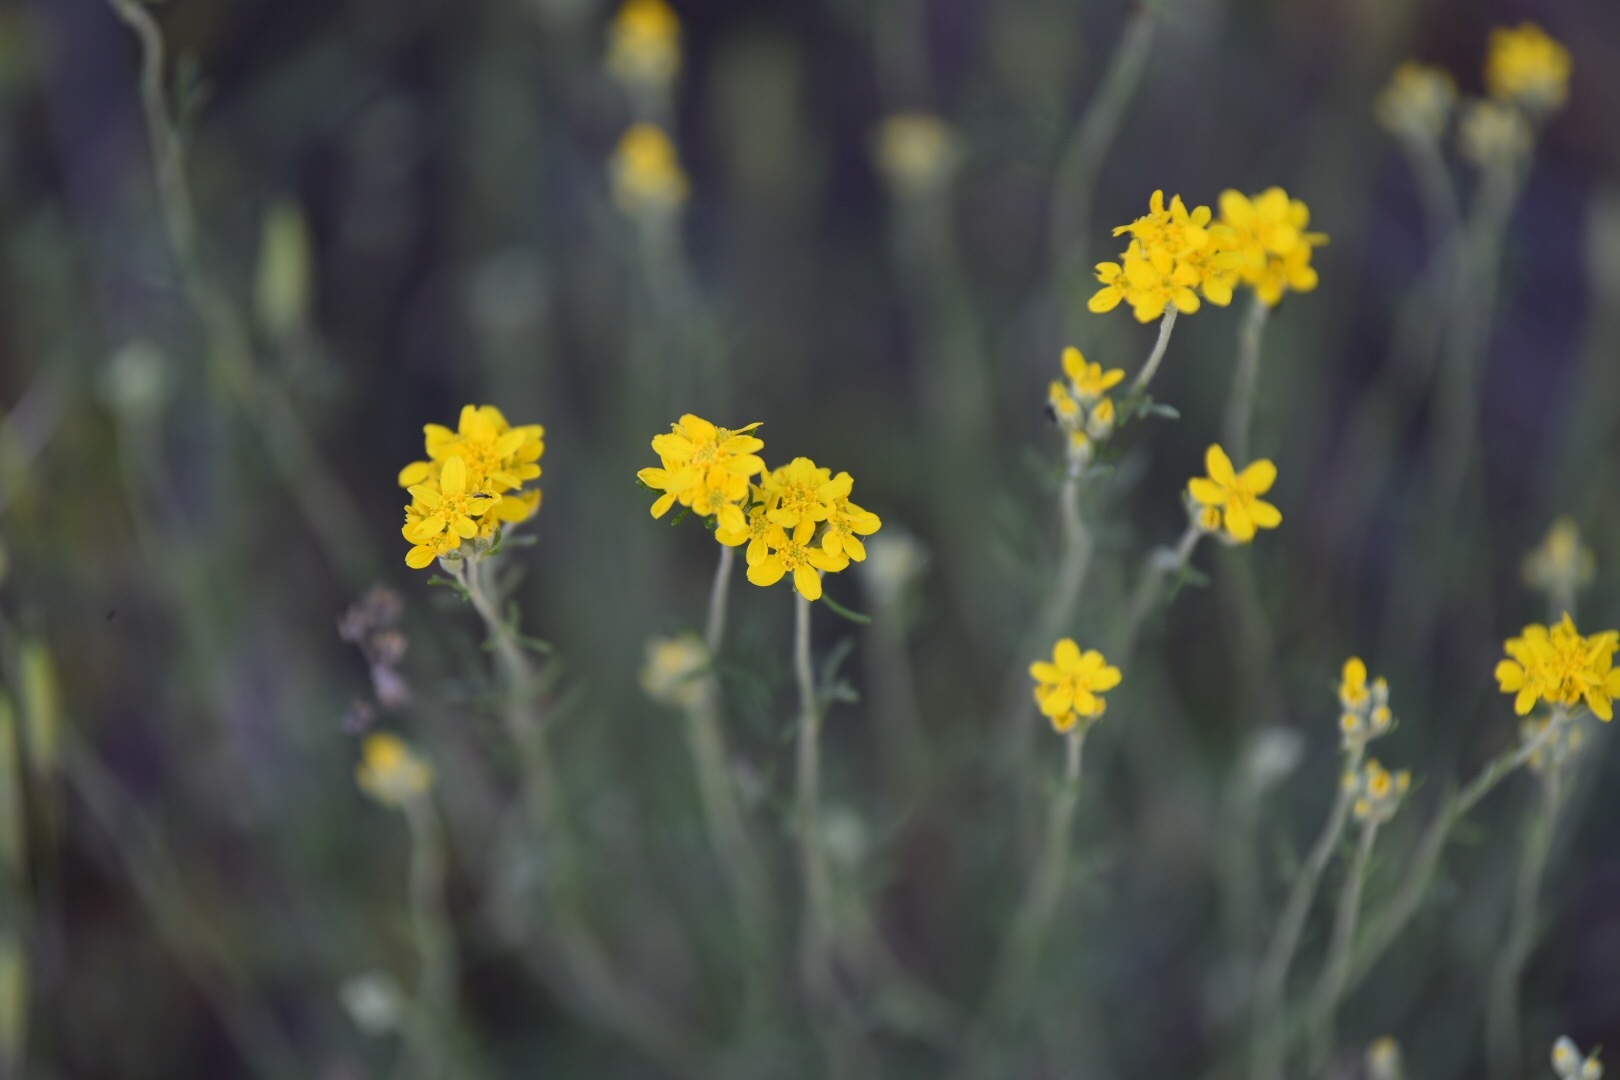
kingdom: Plantae
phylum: Tracheophyta
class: Magnoliopsida
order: Asterales
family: Asteraceae
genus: Eriophyllum
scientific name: Eriophyllum confertiflorum
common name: Golden-yarrow
